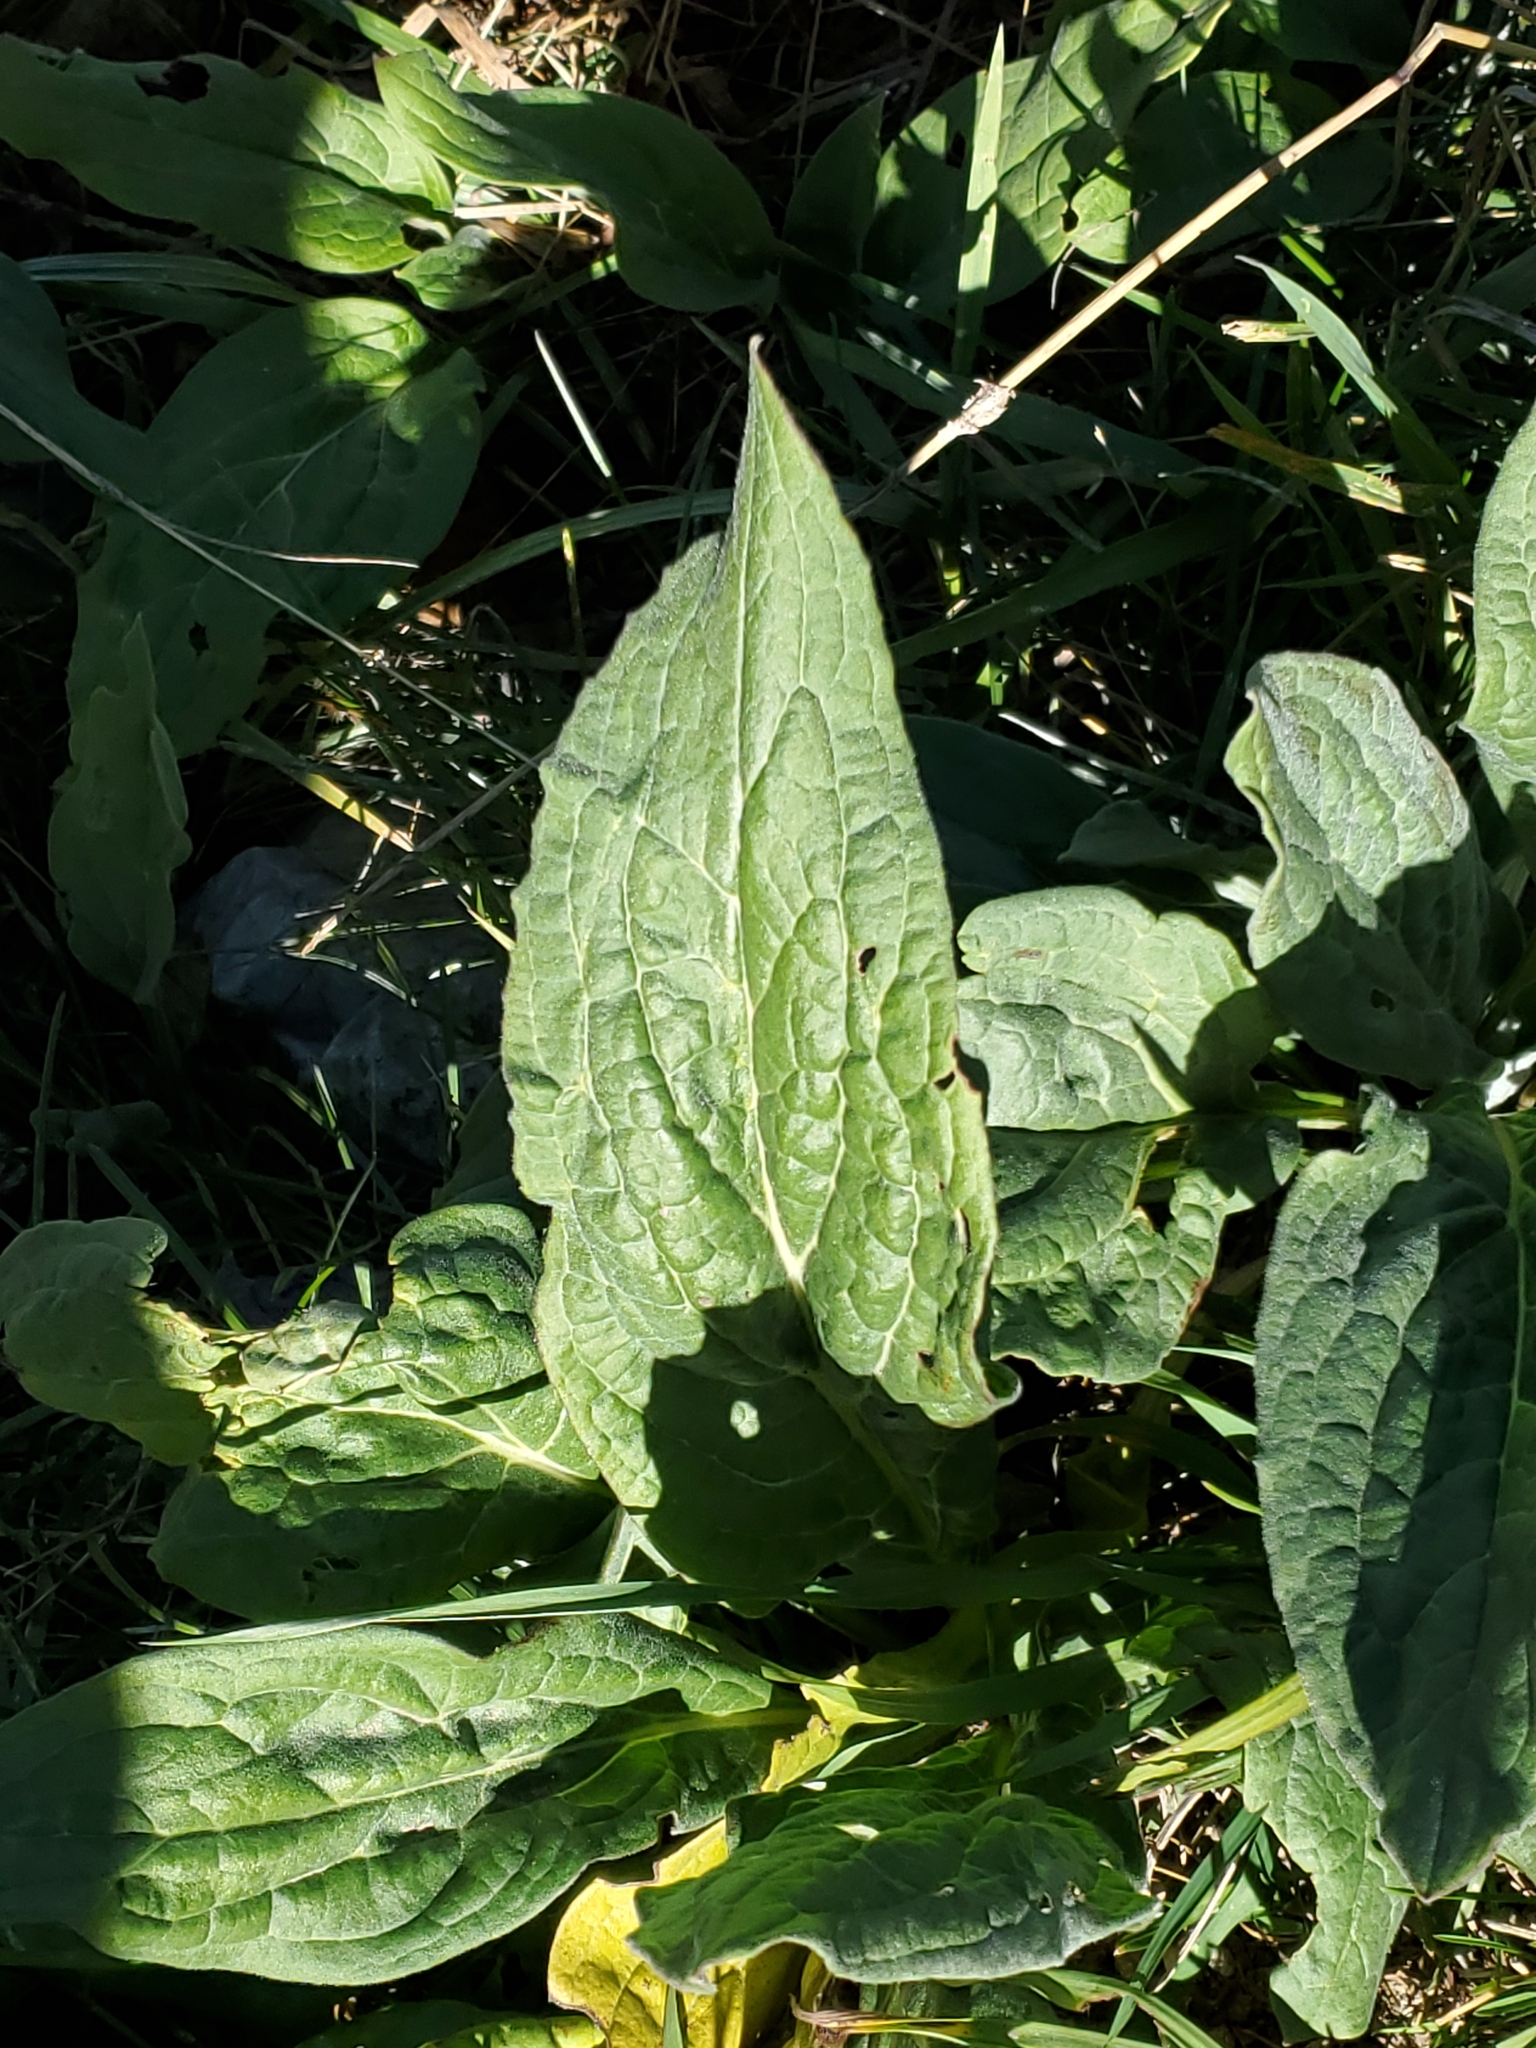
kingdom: Plantae
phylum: Tracheophyta
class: Magnoliopsida
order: Boraginales
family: Boraginaceae
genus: Cynoglossum
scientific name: Cynoglossum officinale
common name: Hound's-tongue
